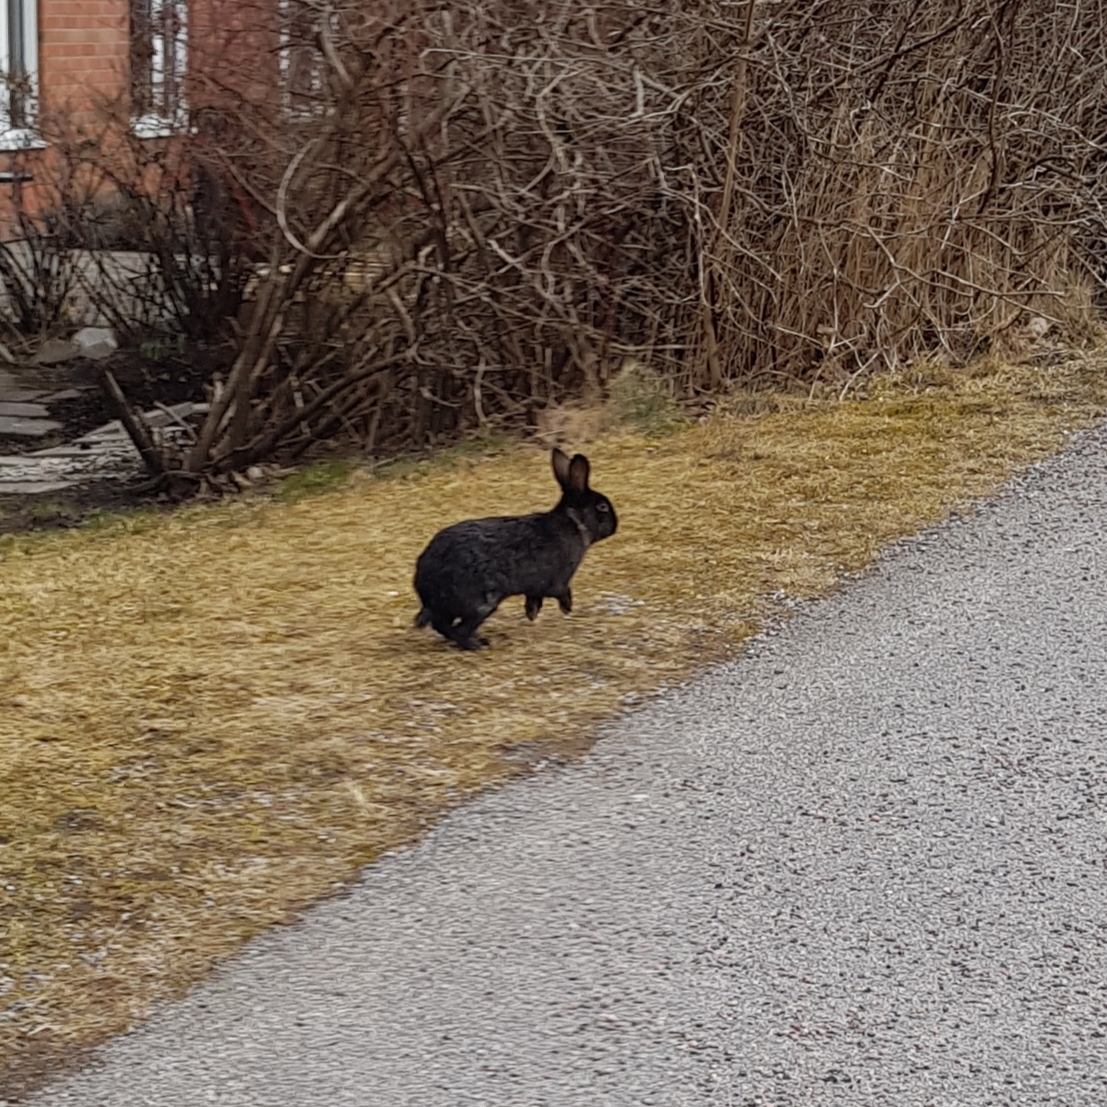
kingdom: Animalia
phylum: Chordata
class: Mammalia
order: Lagomorpha
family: Leporidae
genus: Oryctolagus
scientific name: Oryctolagus cuniculus
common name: European rabbit
